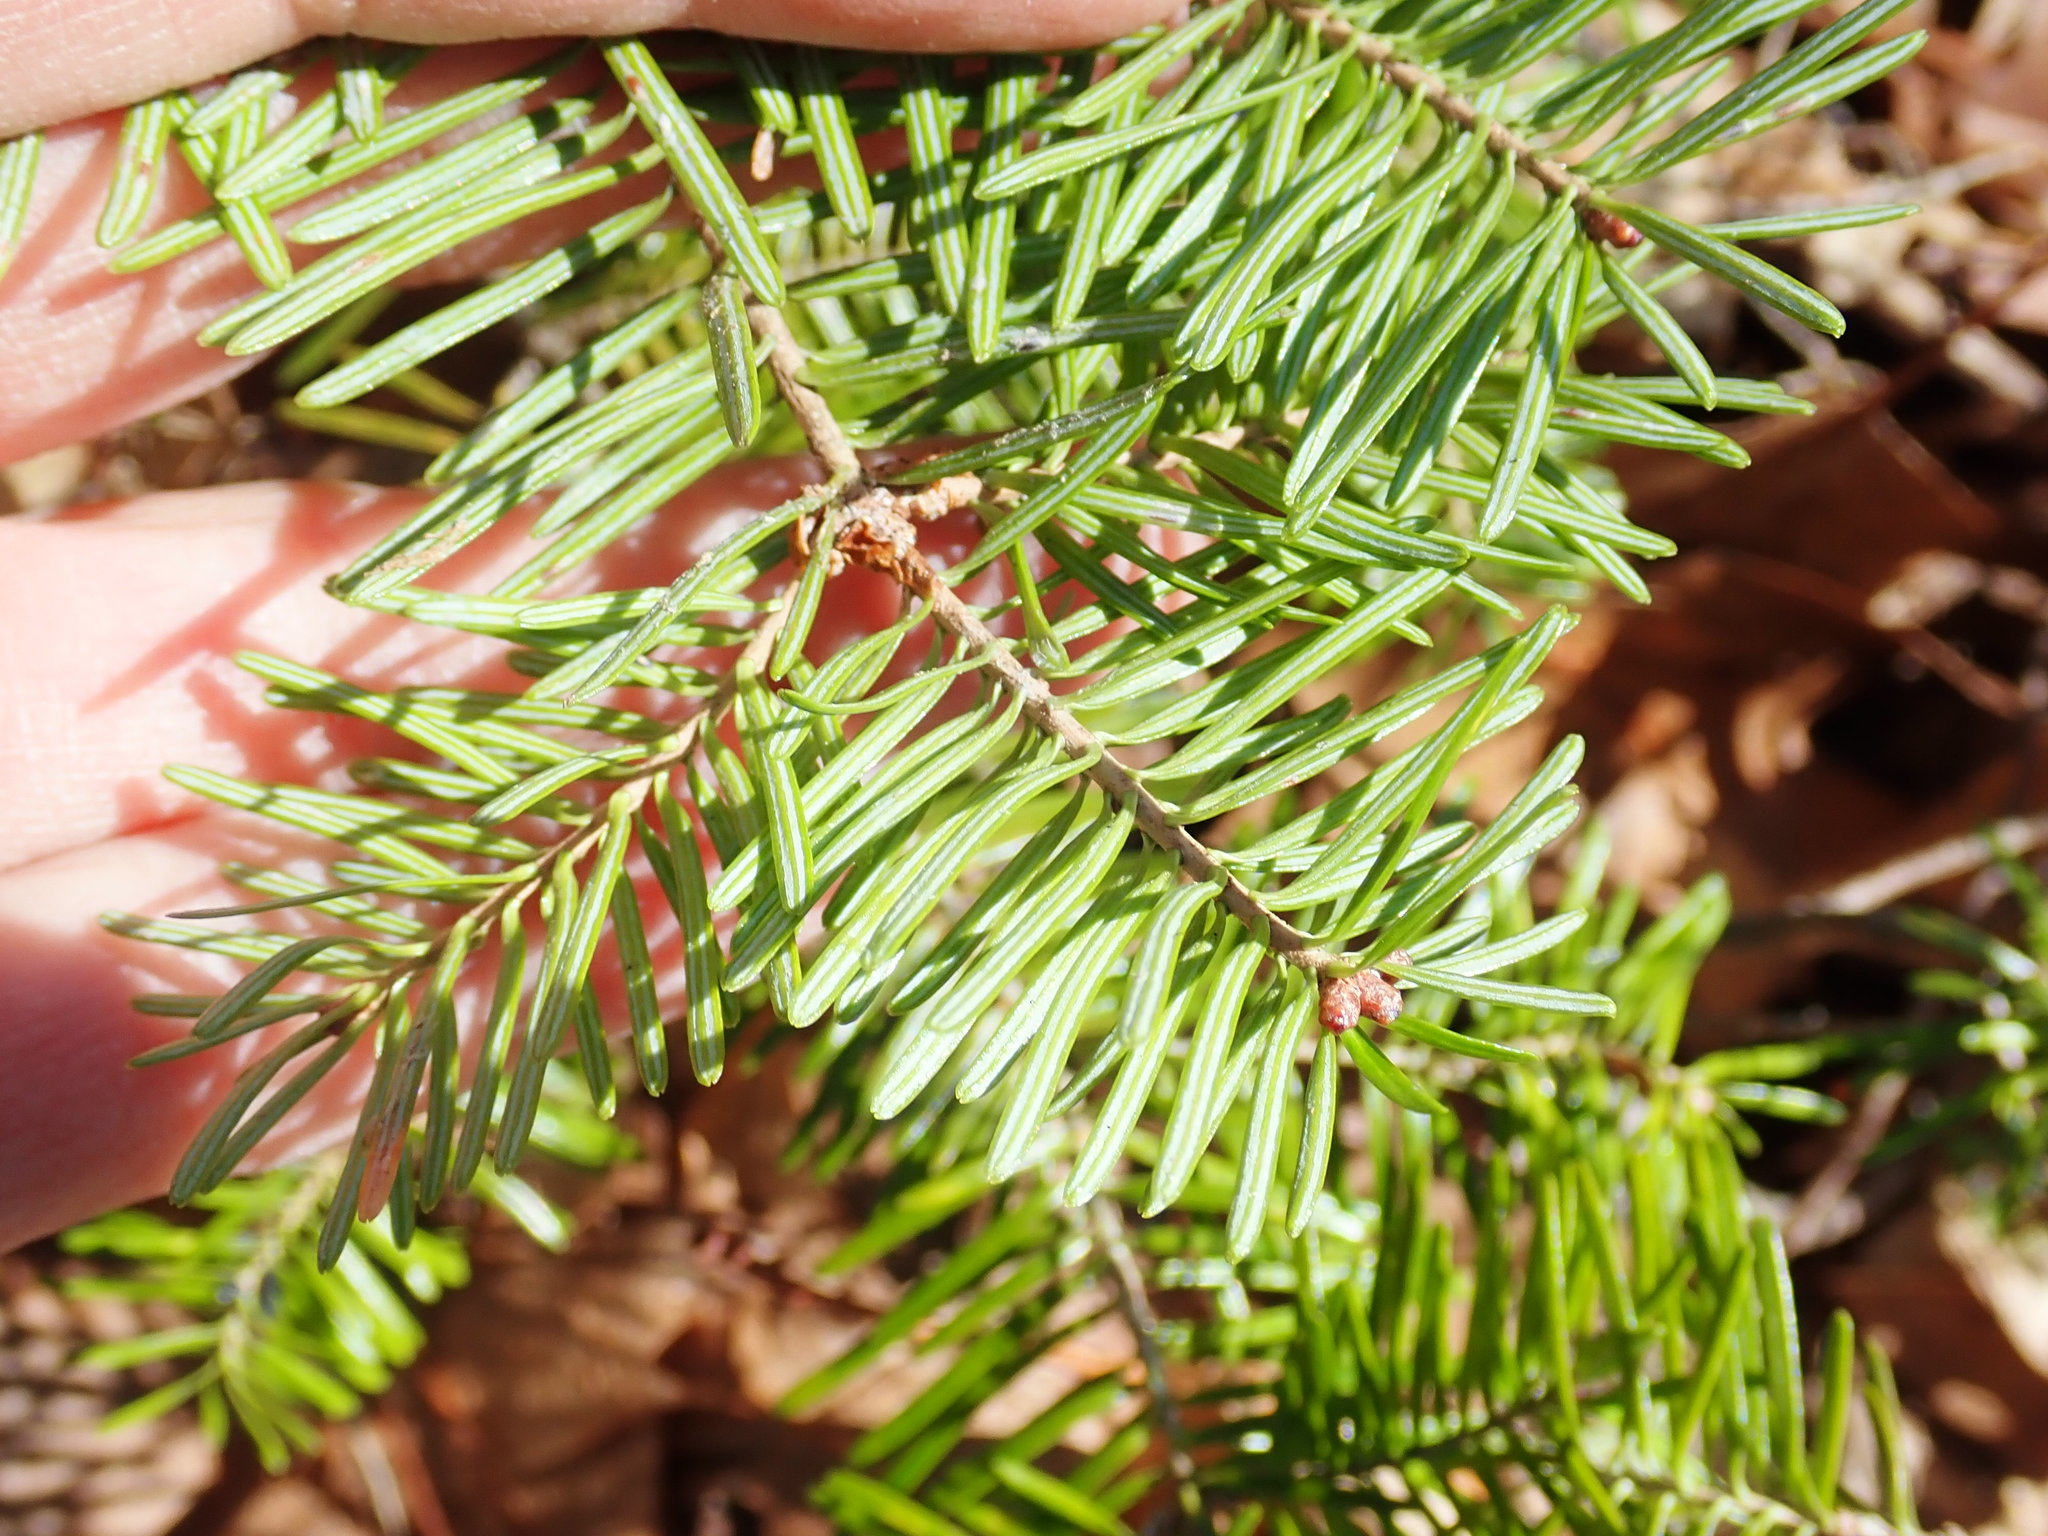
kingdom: Plantae
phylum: Tracheophyta
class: Pinopsida
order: Pinales
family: Pinaceae
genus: Abies
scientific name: Abies balsamea
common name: Balsam fir
